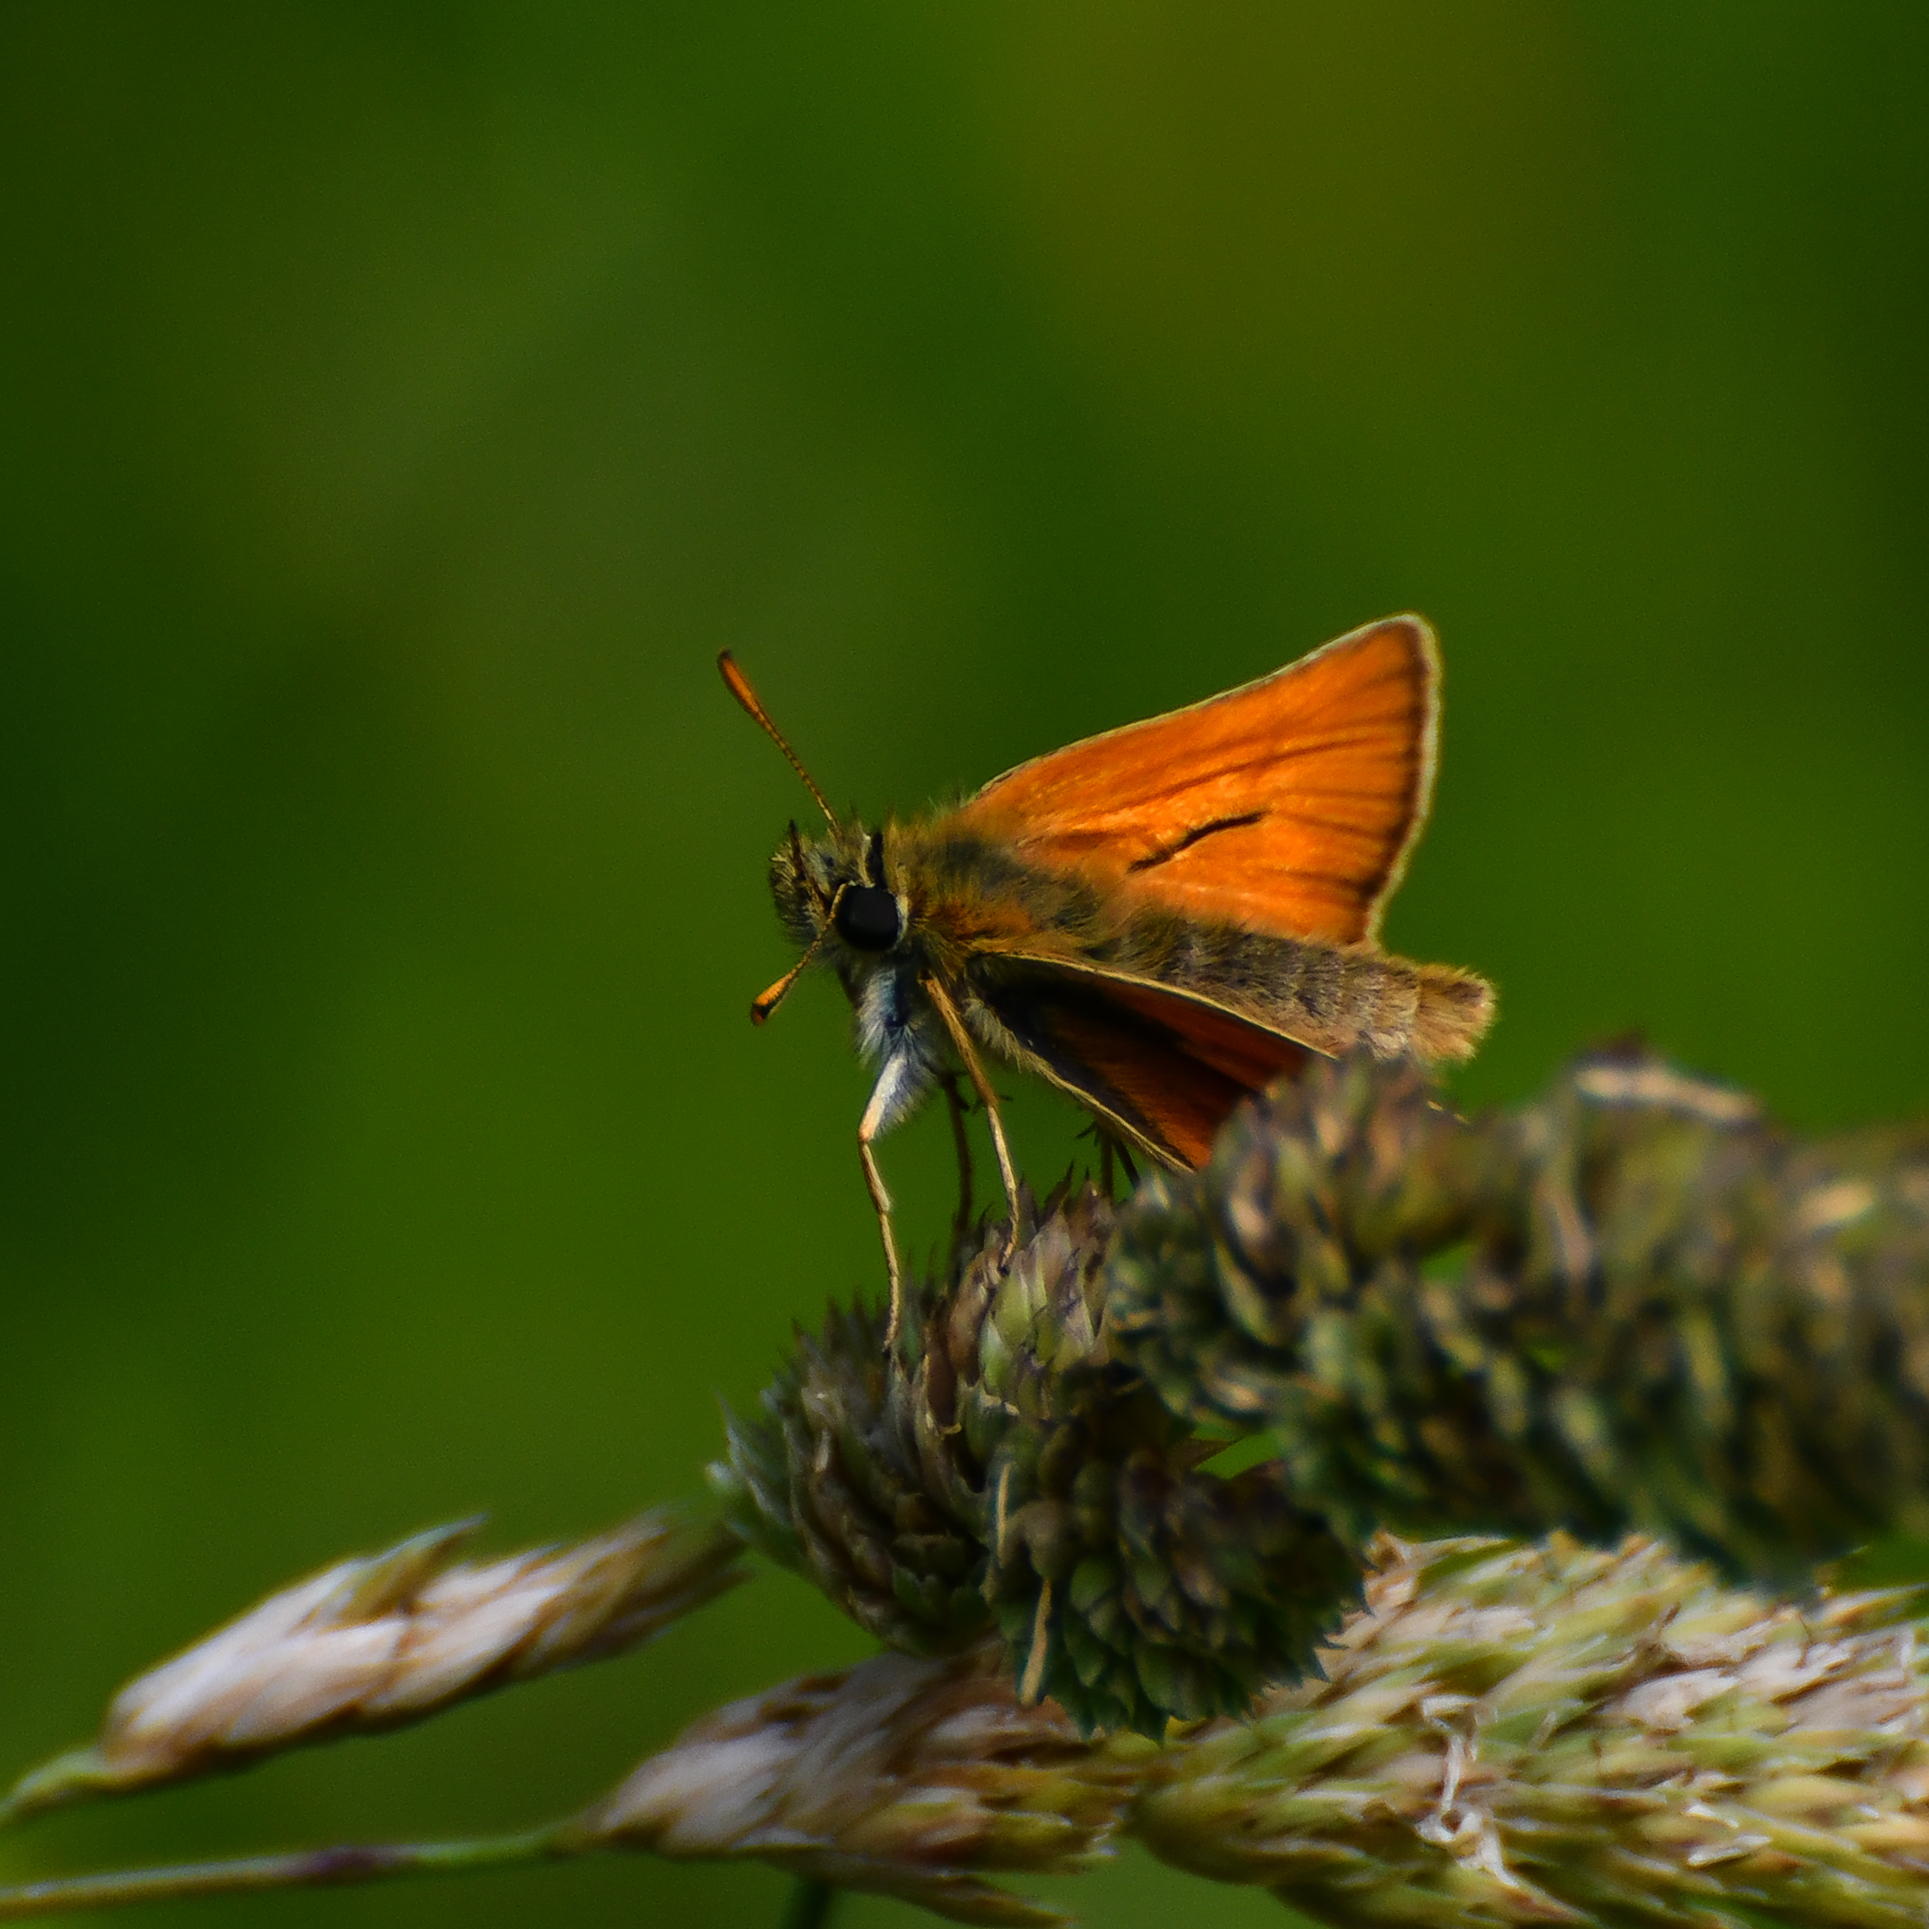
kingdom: Animalia
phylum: Arthropoda
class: Insecta
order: Lepidoptera
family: Hesperiidae
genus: Thymelicus
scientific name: Thymelicus sylvestris
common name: Small skipper
